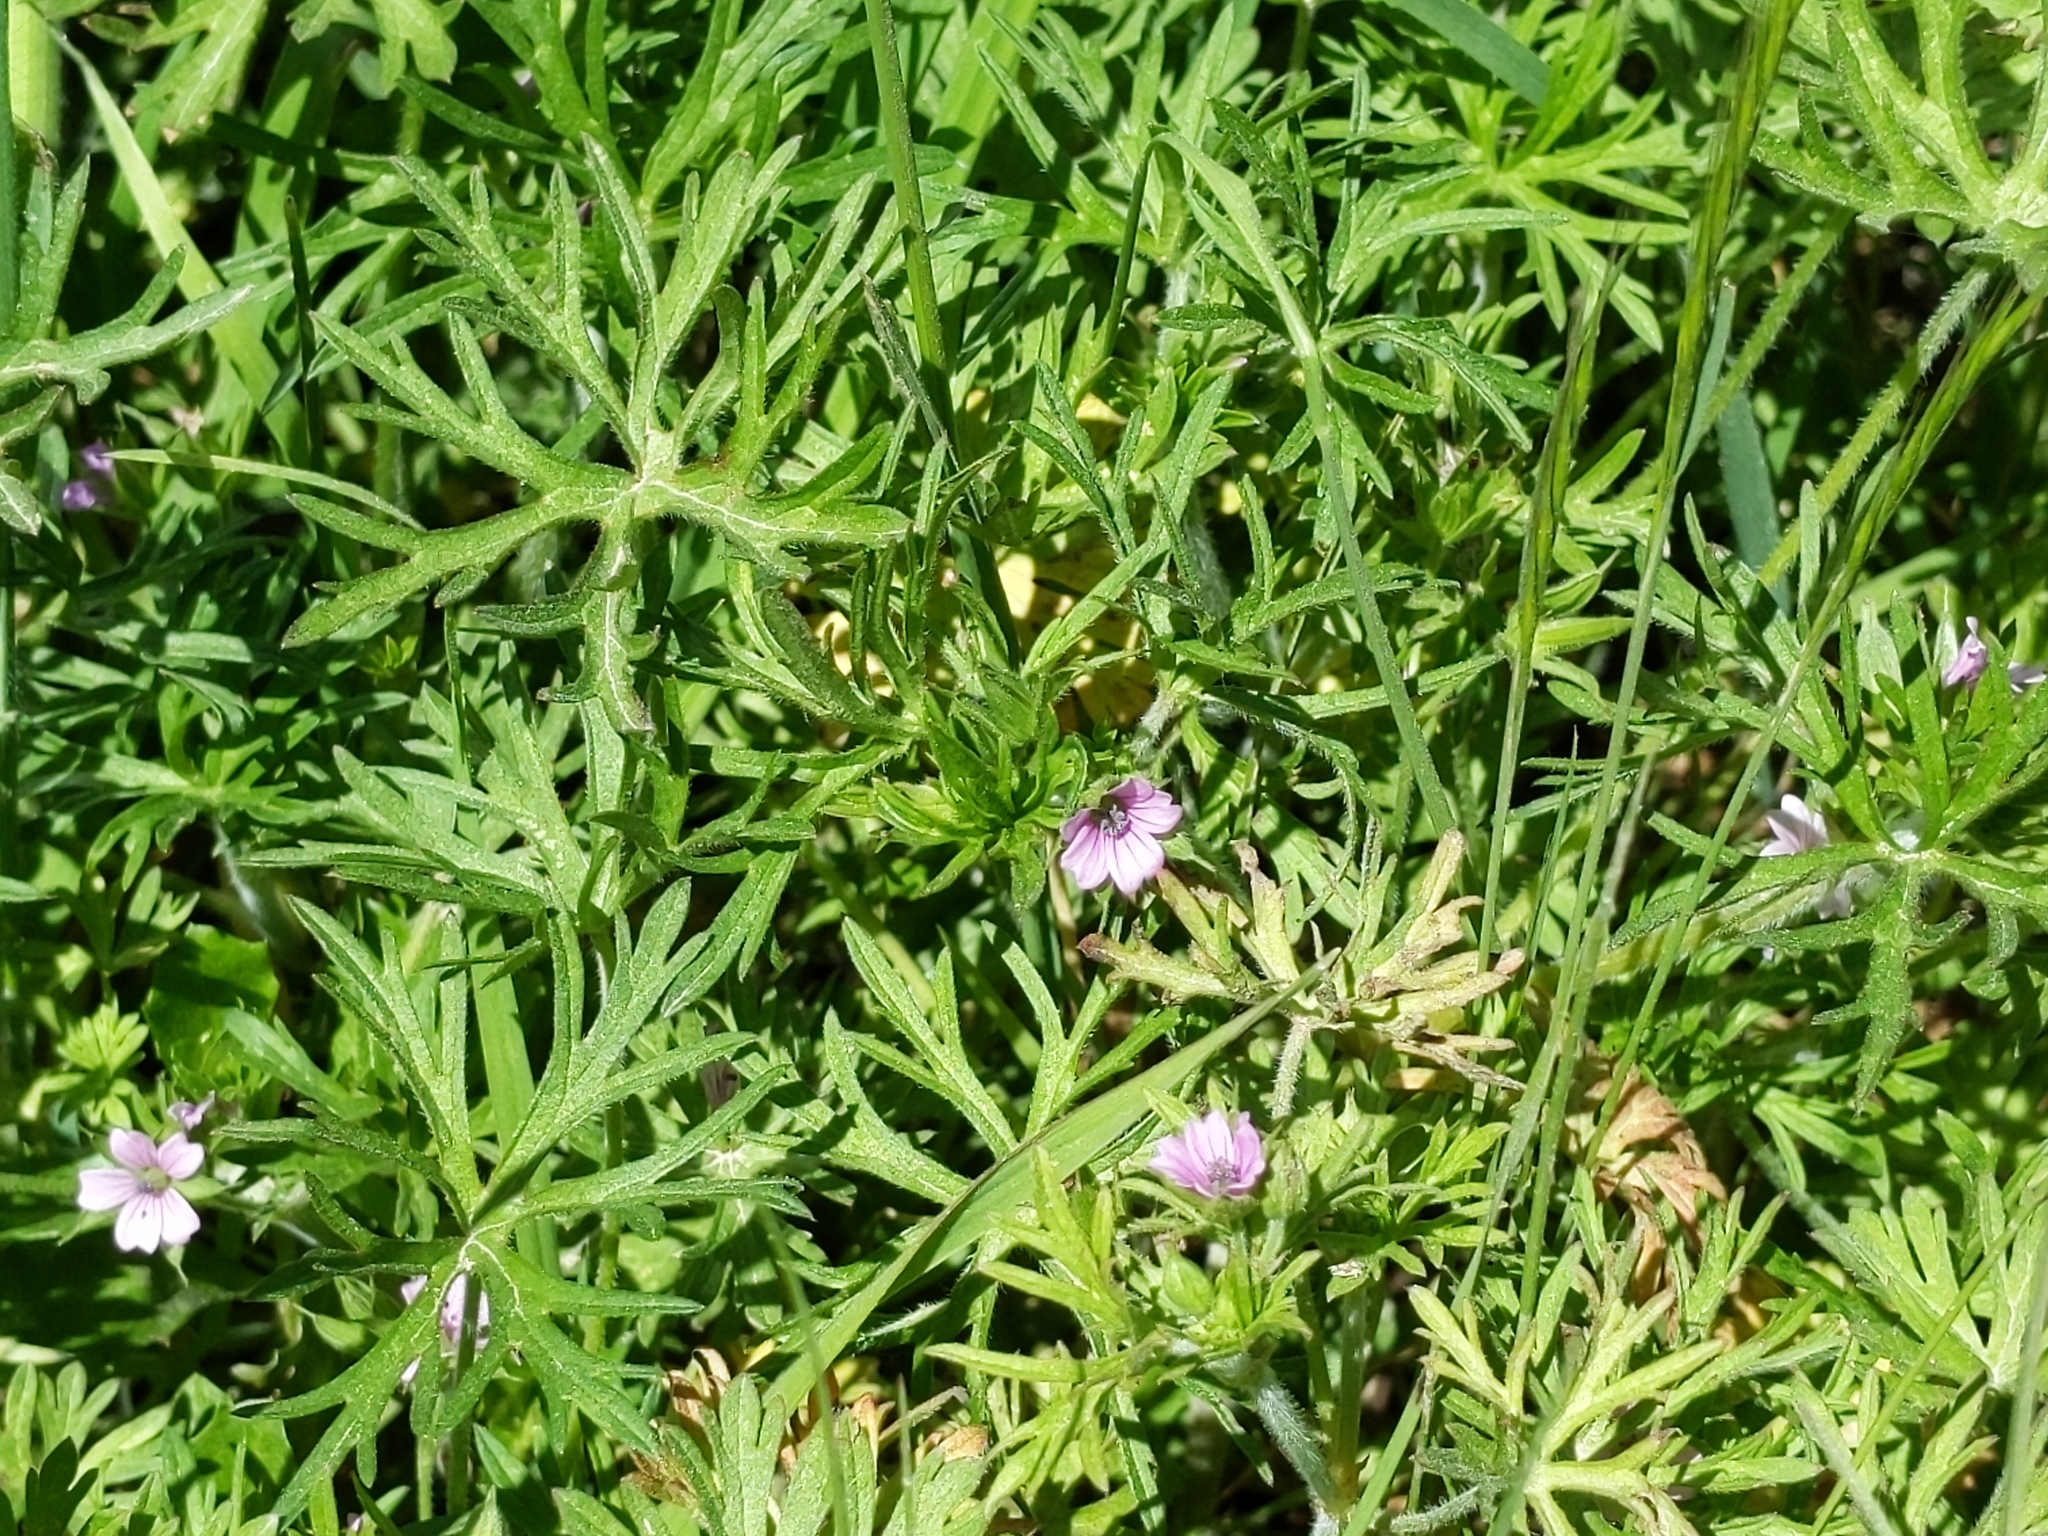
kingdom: Plantae
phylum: Tracheophyta
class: Magnoliopsida
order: Geraniales
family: Geraniaceae
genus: Geranium
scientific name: Geranium dissectum
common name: Cut-leaved crane's-bill
